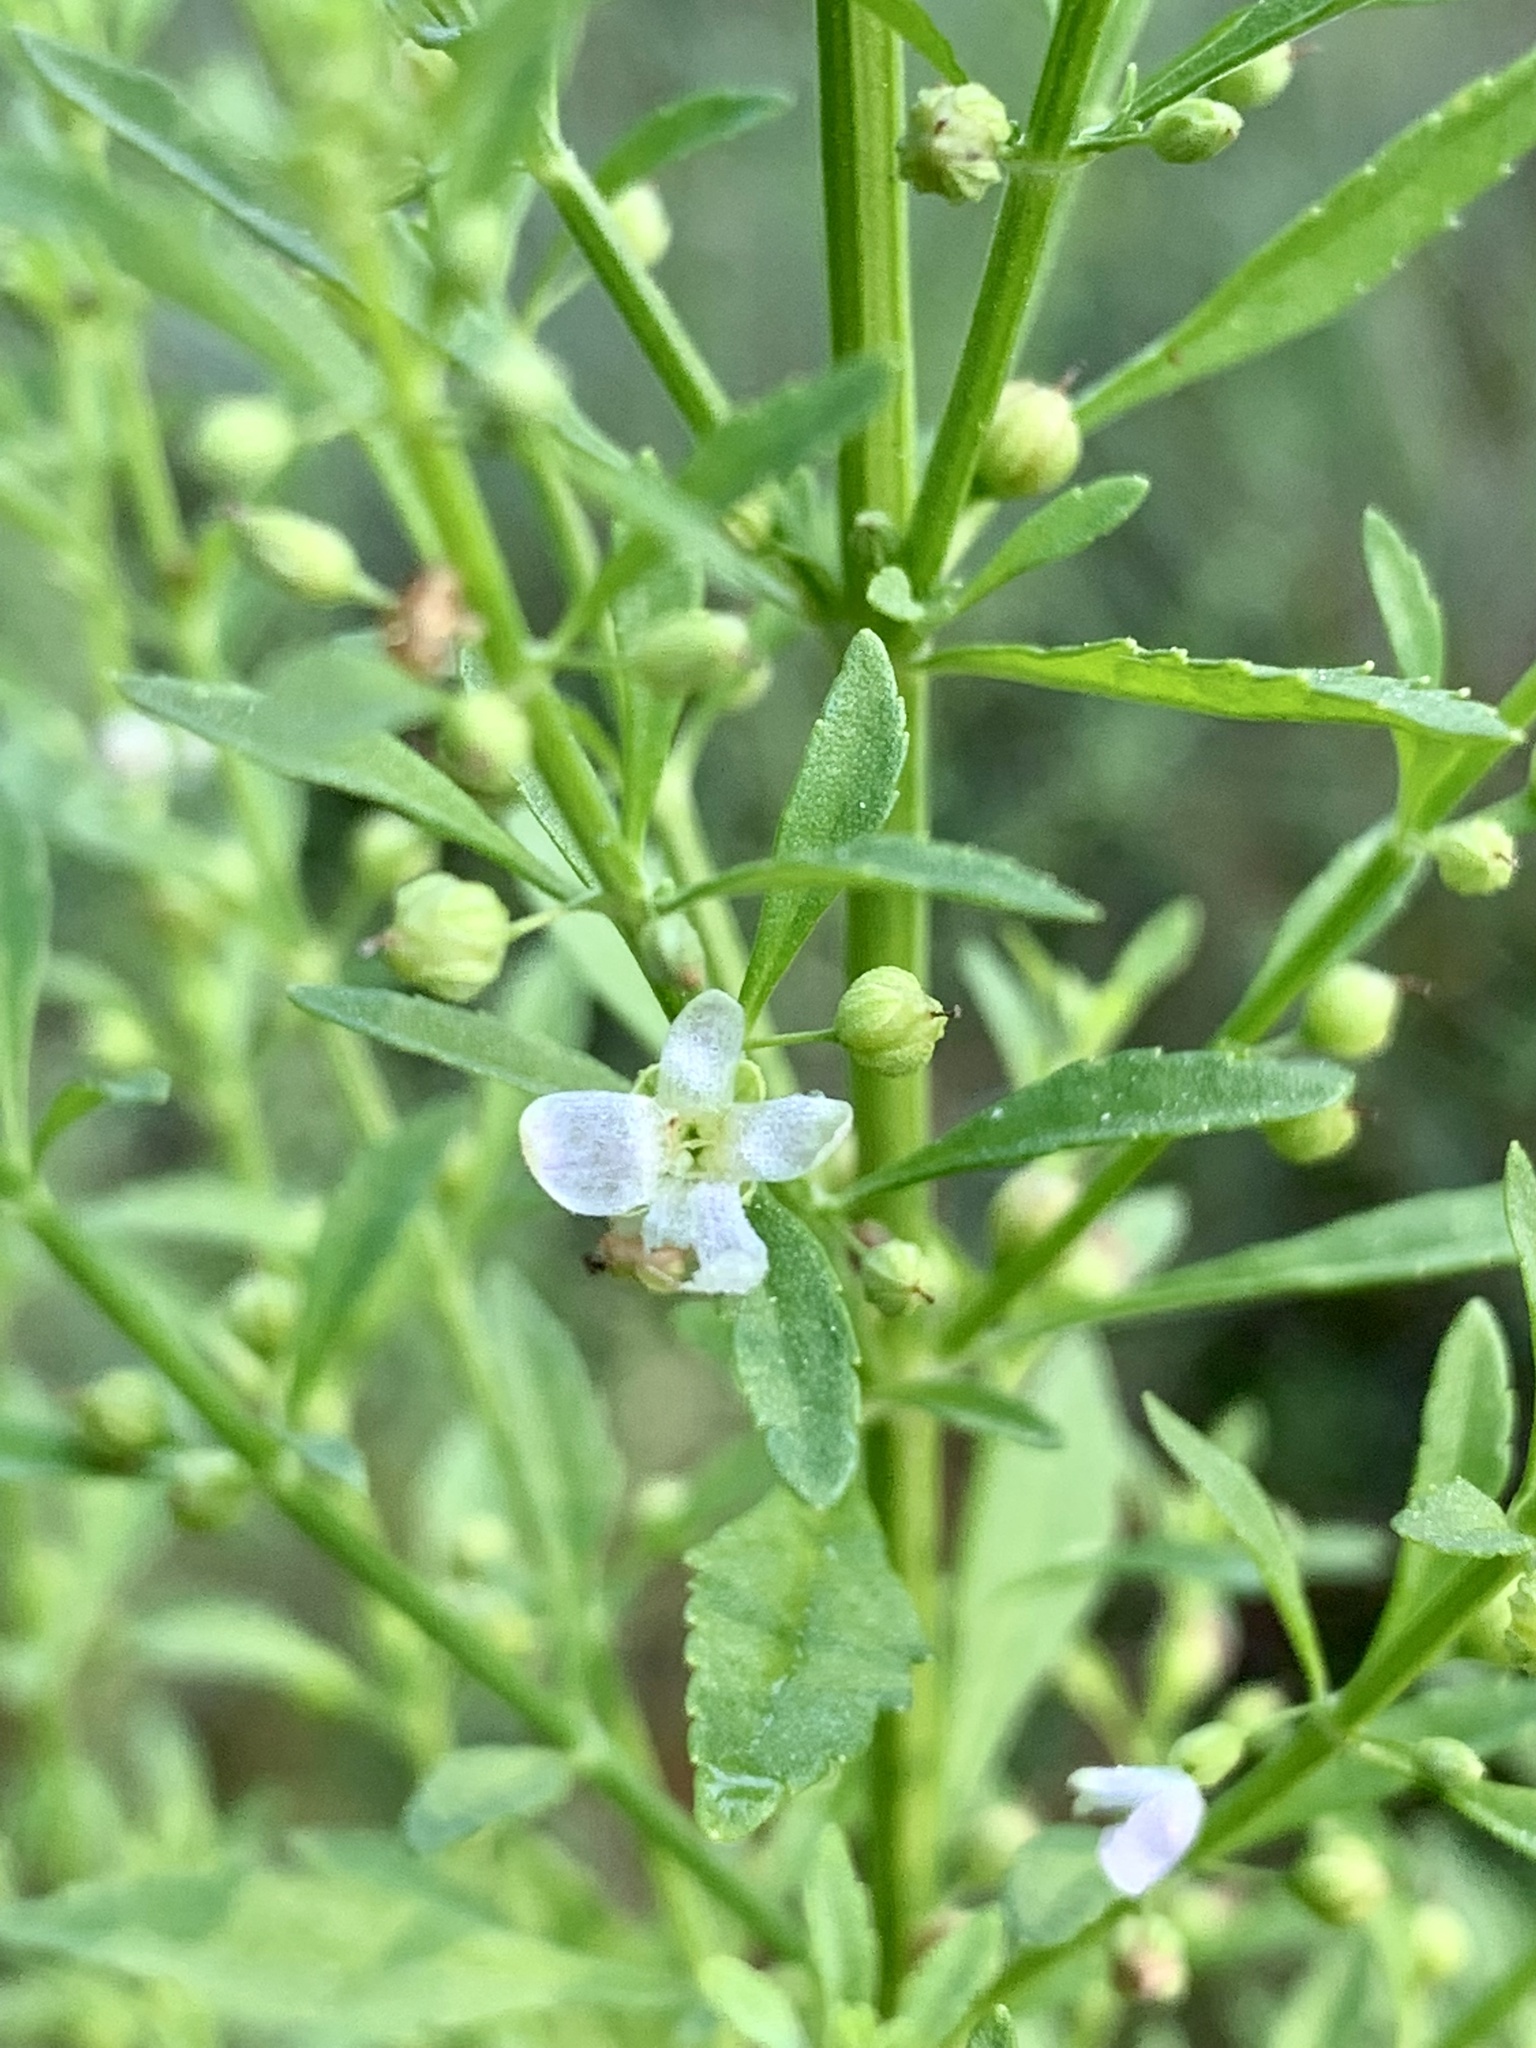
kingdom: Plantae
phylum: Tracheophyta
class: Magnoliopsida
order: Lamiales
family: Plantaginaceae
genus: Scoparia
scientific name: Scoparia dulcis
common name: Scoparia-weed
